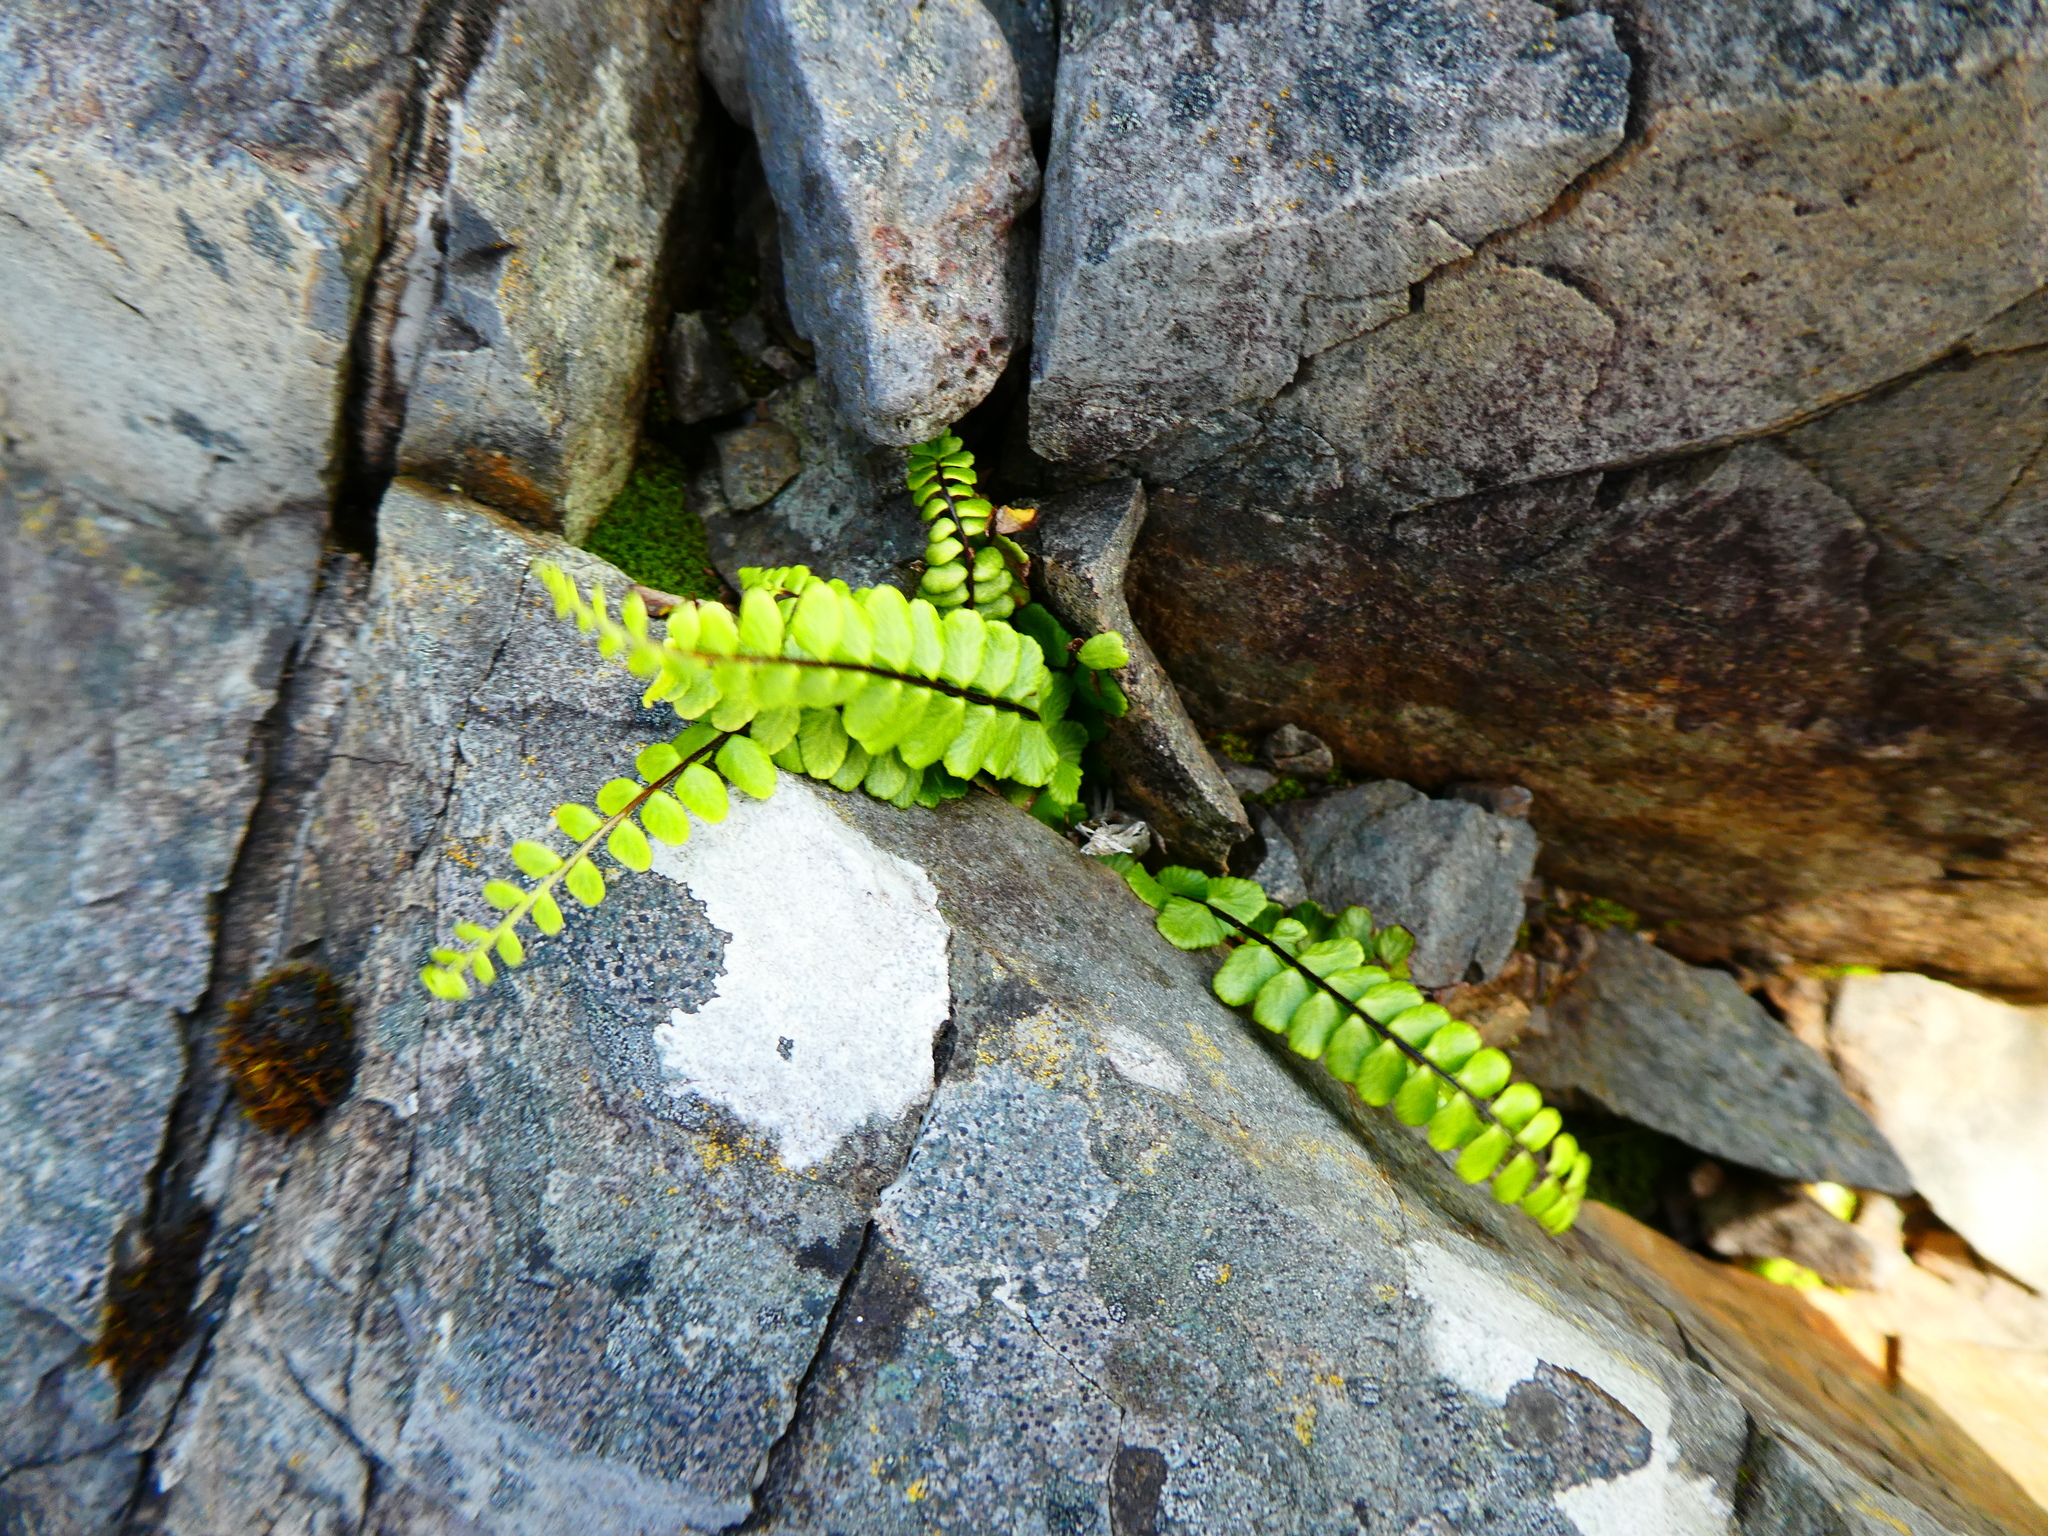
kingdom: Plantae
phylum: Tracheophyta
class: Polypodiopsida
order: Polypodiales
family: Aspleniaceae
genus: Asplenium
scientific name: Asplenium trichomanes
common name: Maidenhair spleenwort
